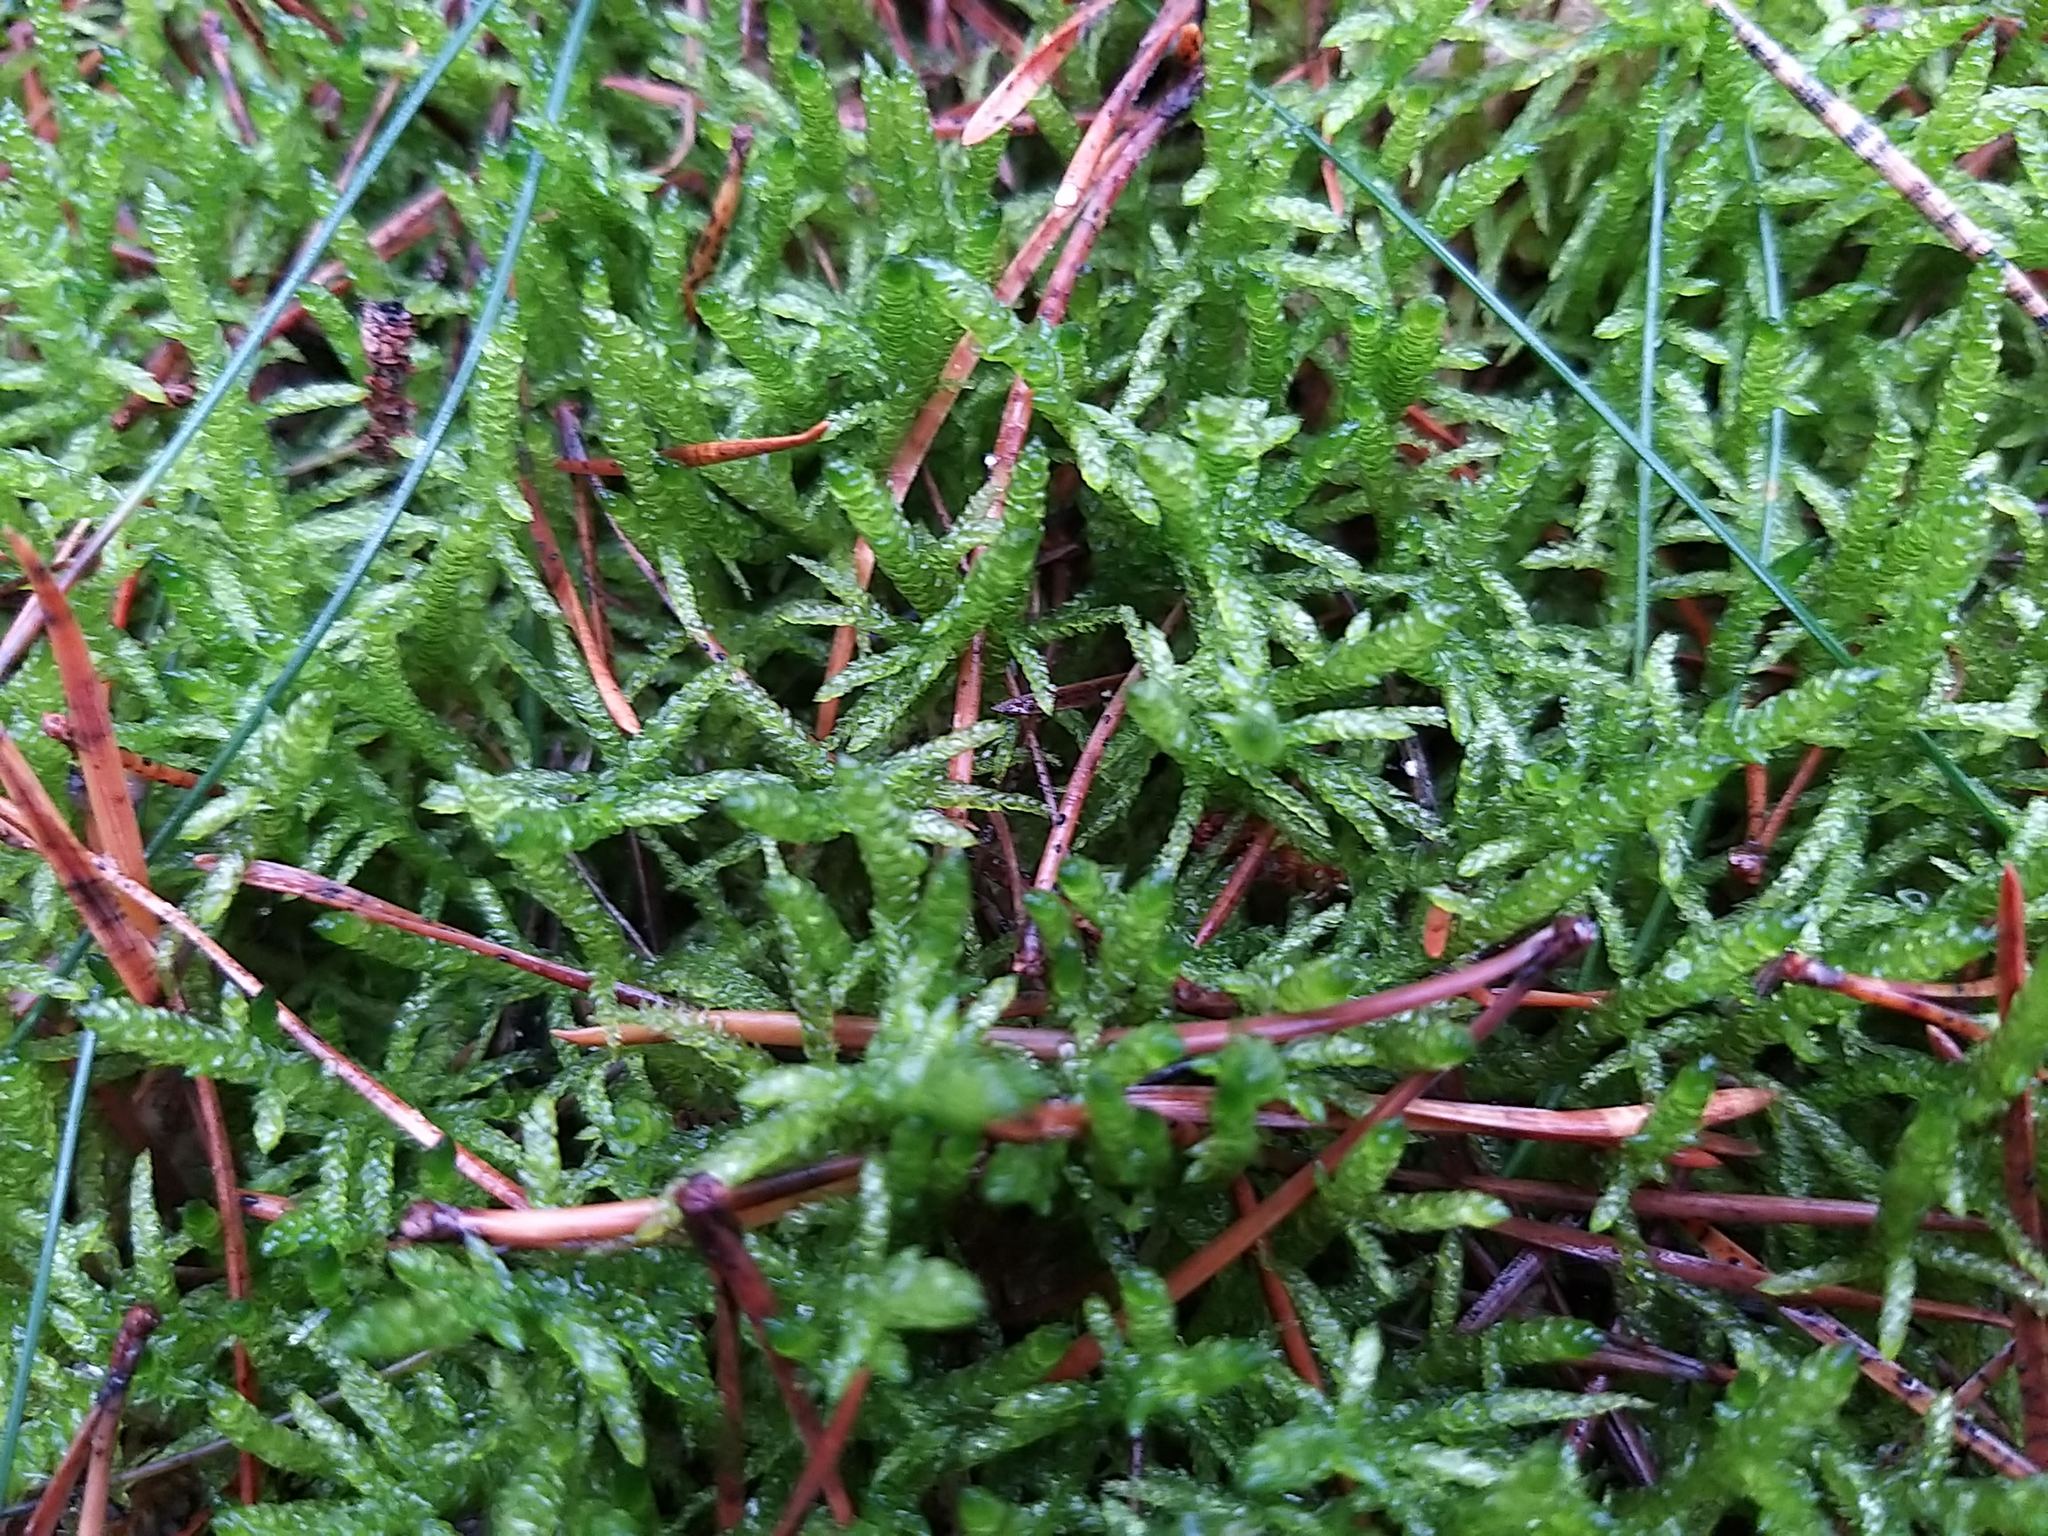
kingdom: Plantae
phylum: Bryophyta
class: Bryopsida
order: Hypnales
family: Brachytheciaceae
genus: Pseudoscleropodium
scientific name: Pseudoscleropodium purum
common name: Neat feather-moss
